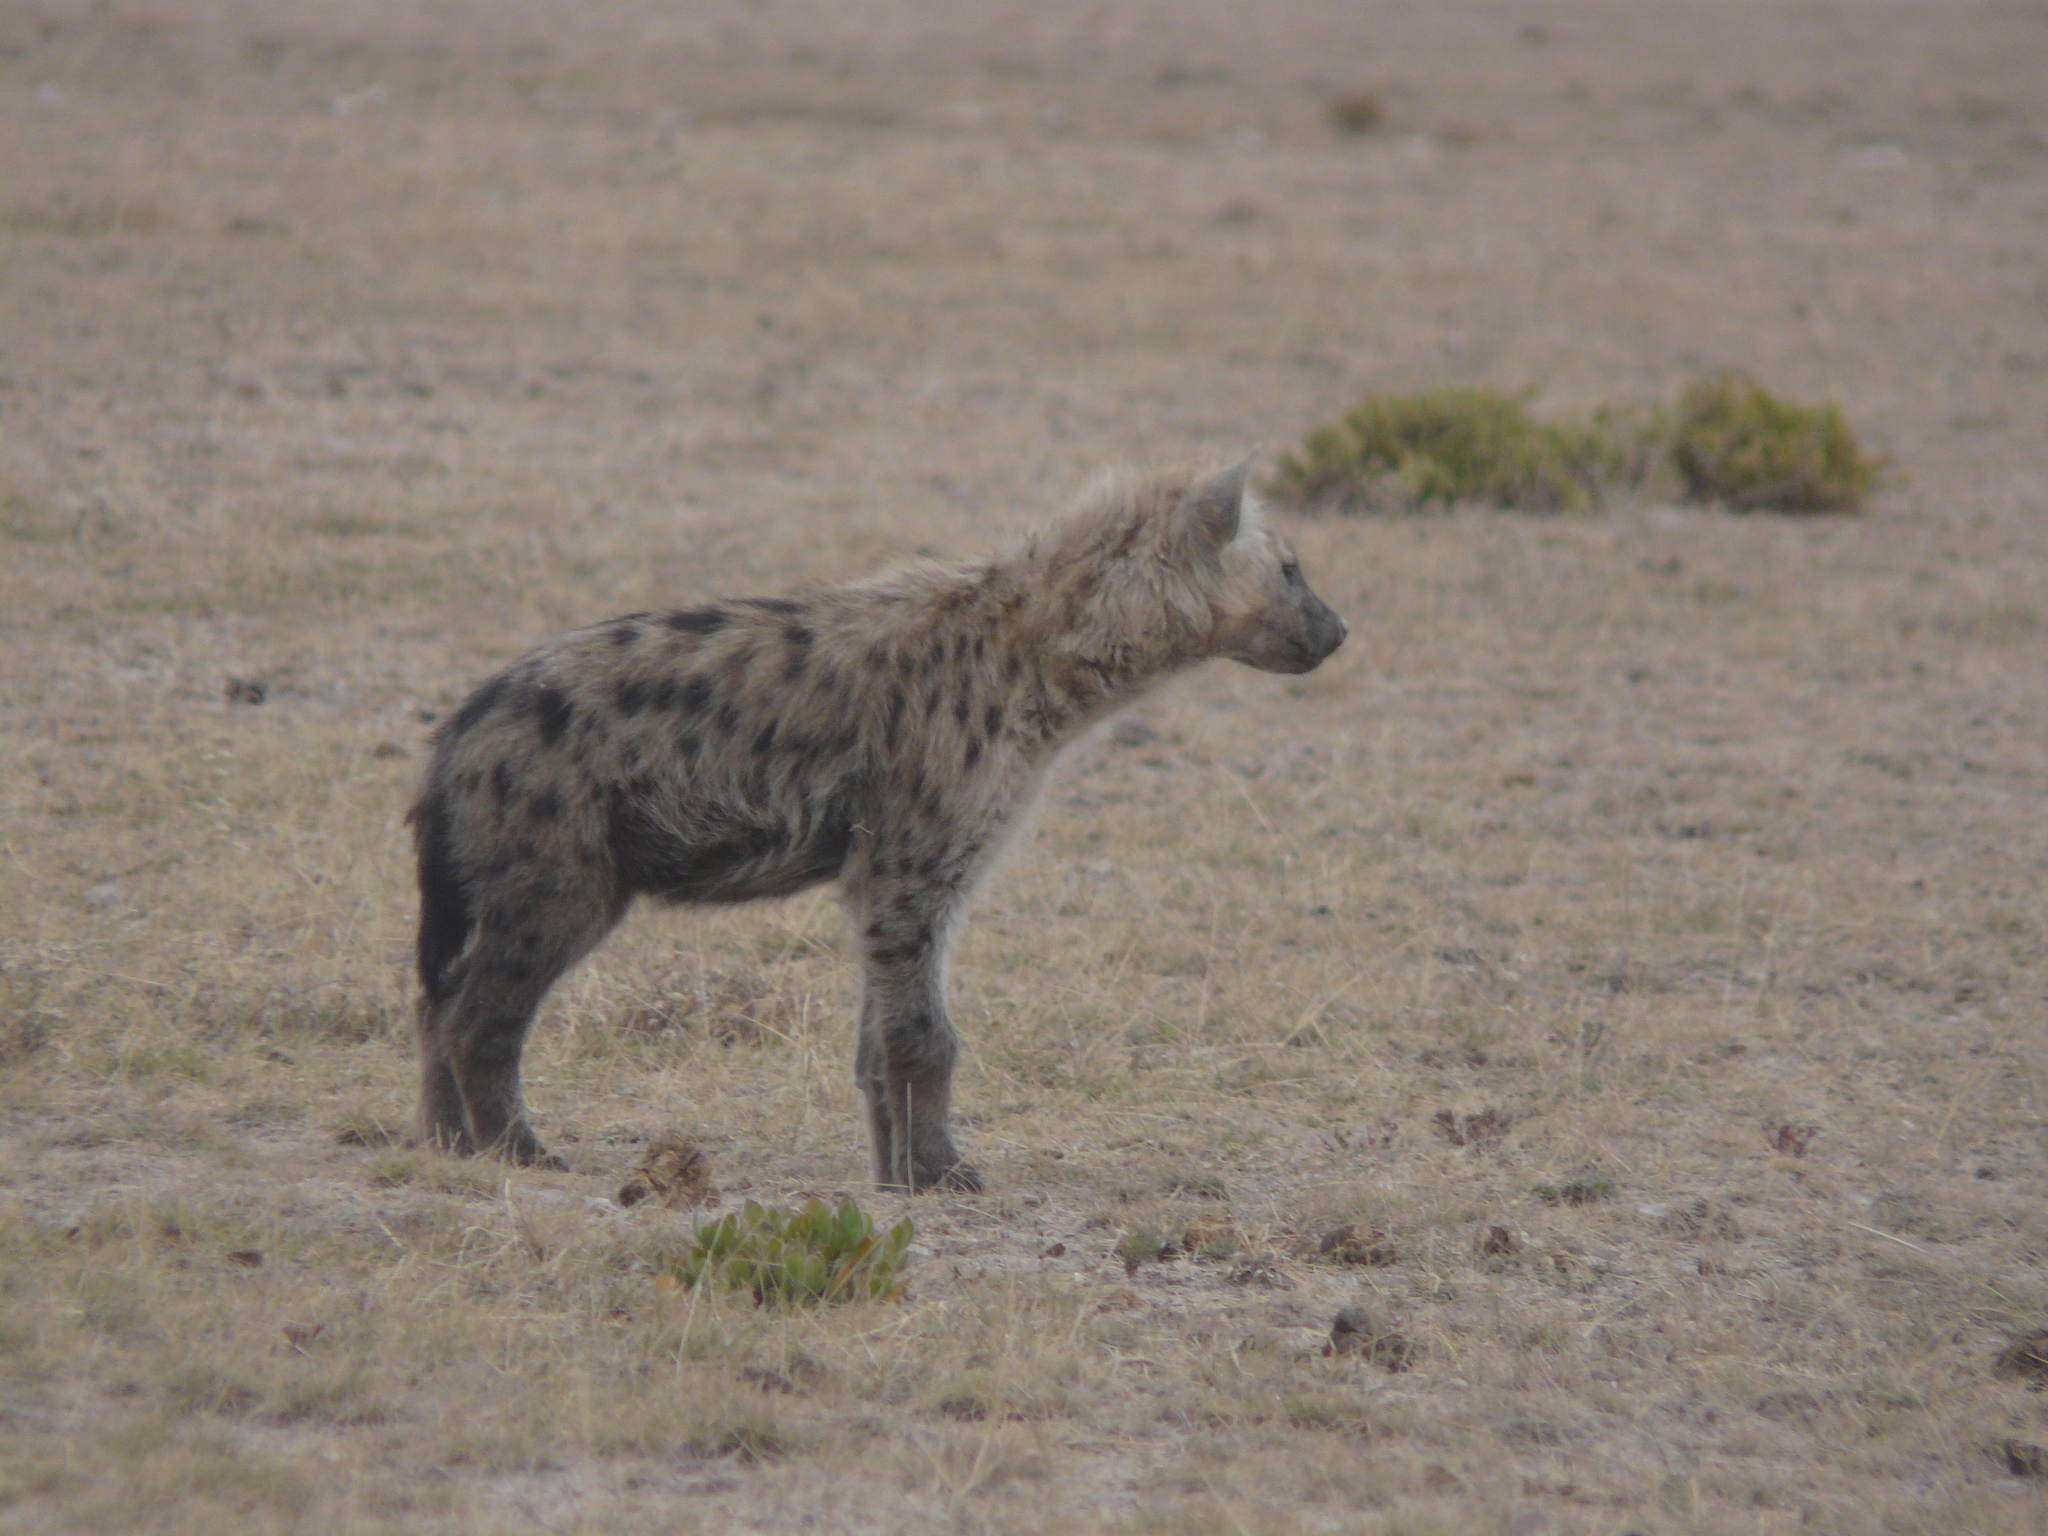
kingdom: Animalia
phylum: Chordata
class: Mammalia
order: Carnivora
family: Hyaenidae
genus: Crocuta
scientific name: Crocuta crocuta
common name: Spotted hyaena
